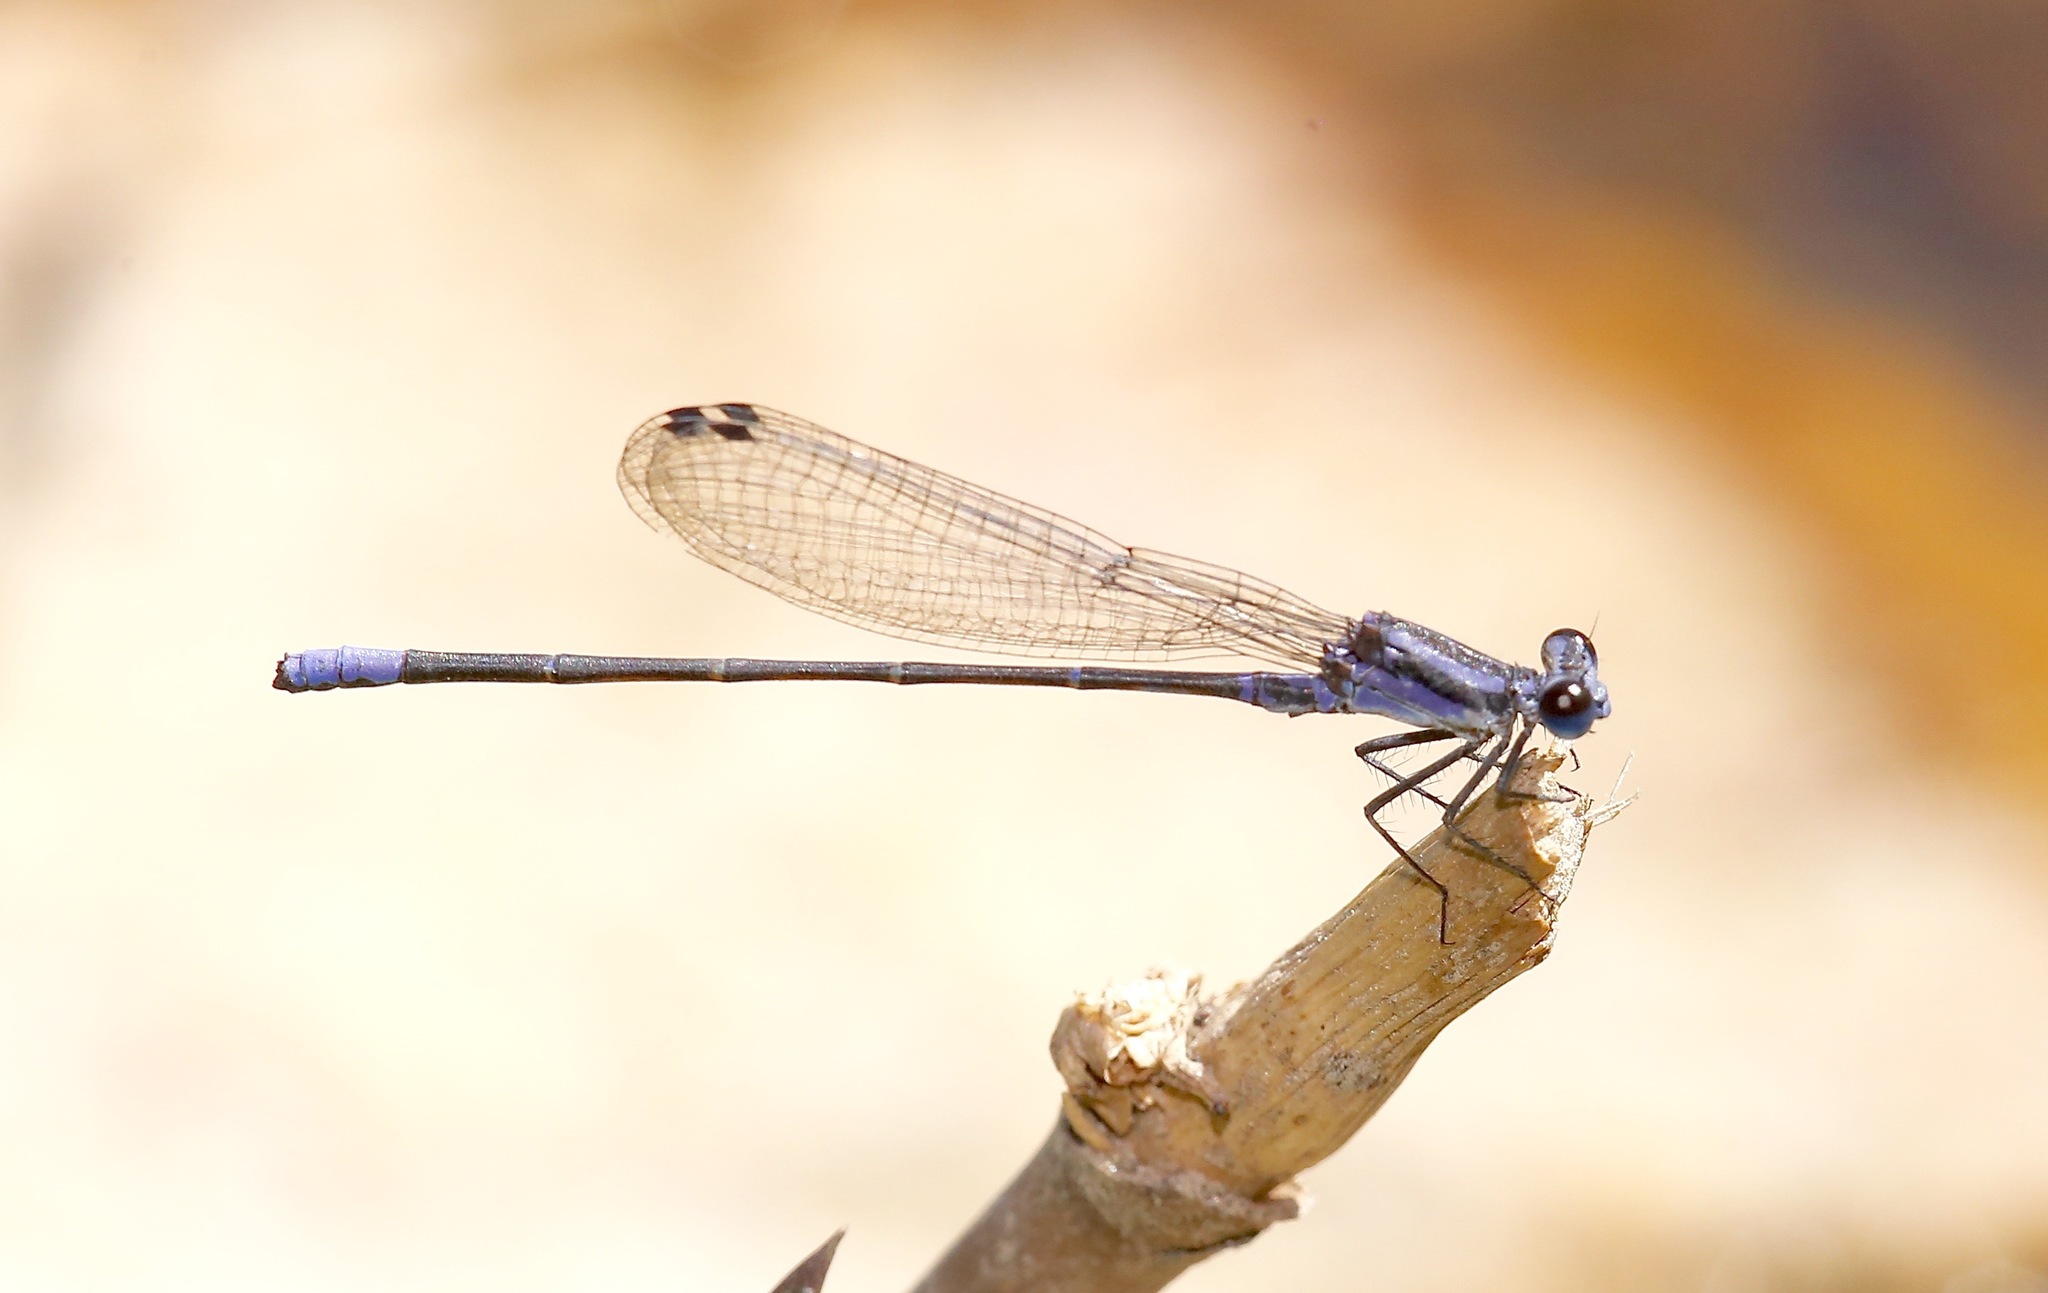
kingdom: Animalia
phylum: Arthropoda
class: Insecta
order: Odonata
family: Coenagrionidae
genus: Argia
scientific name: Argia pulla
